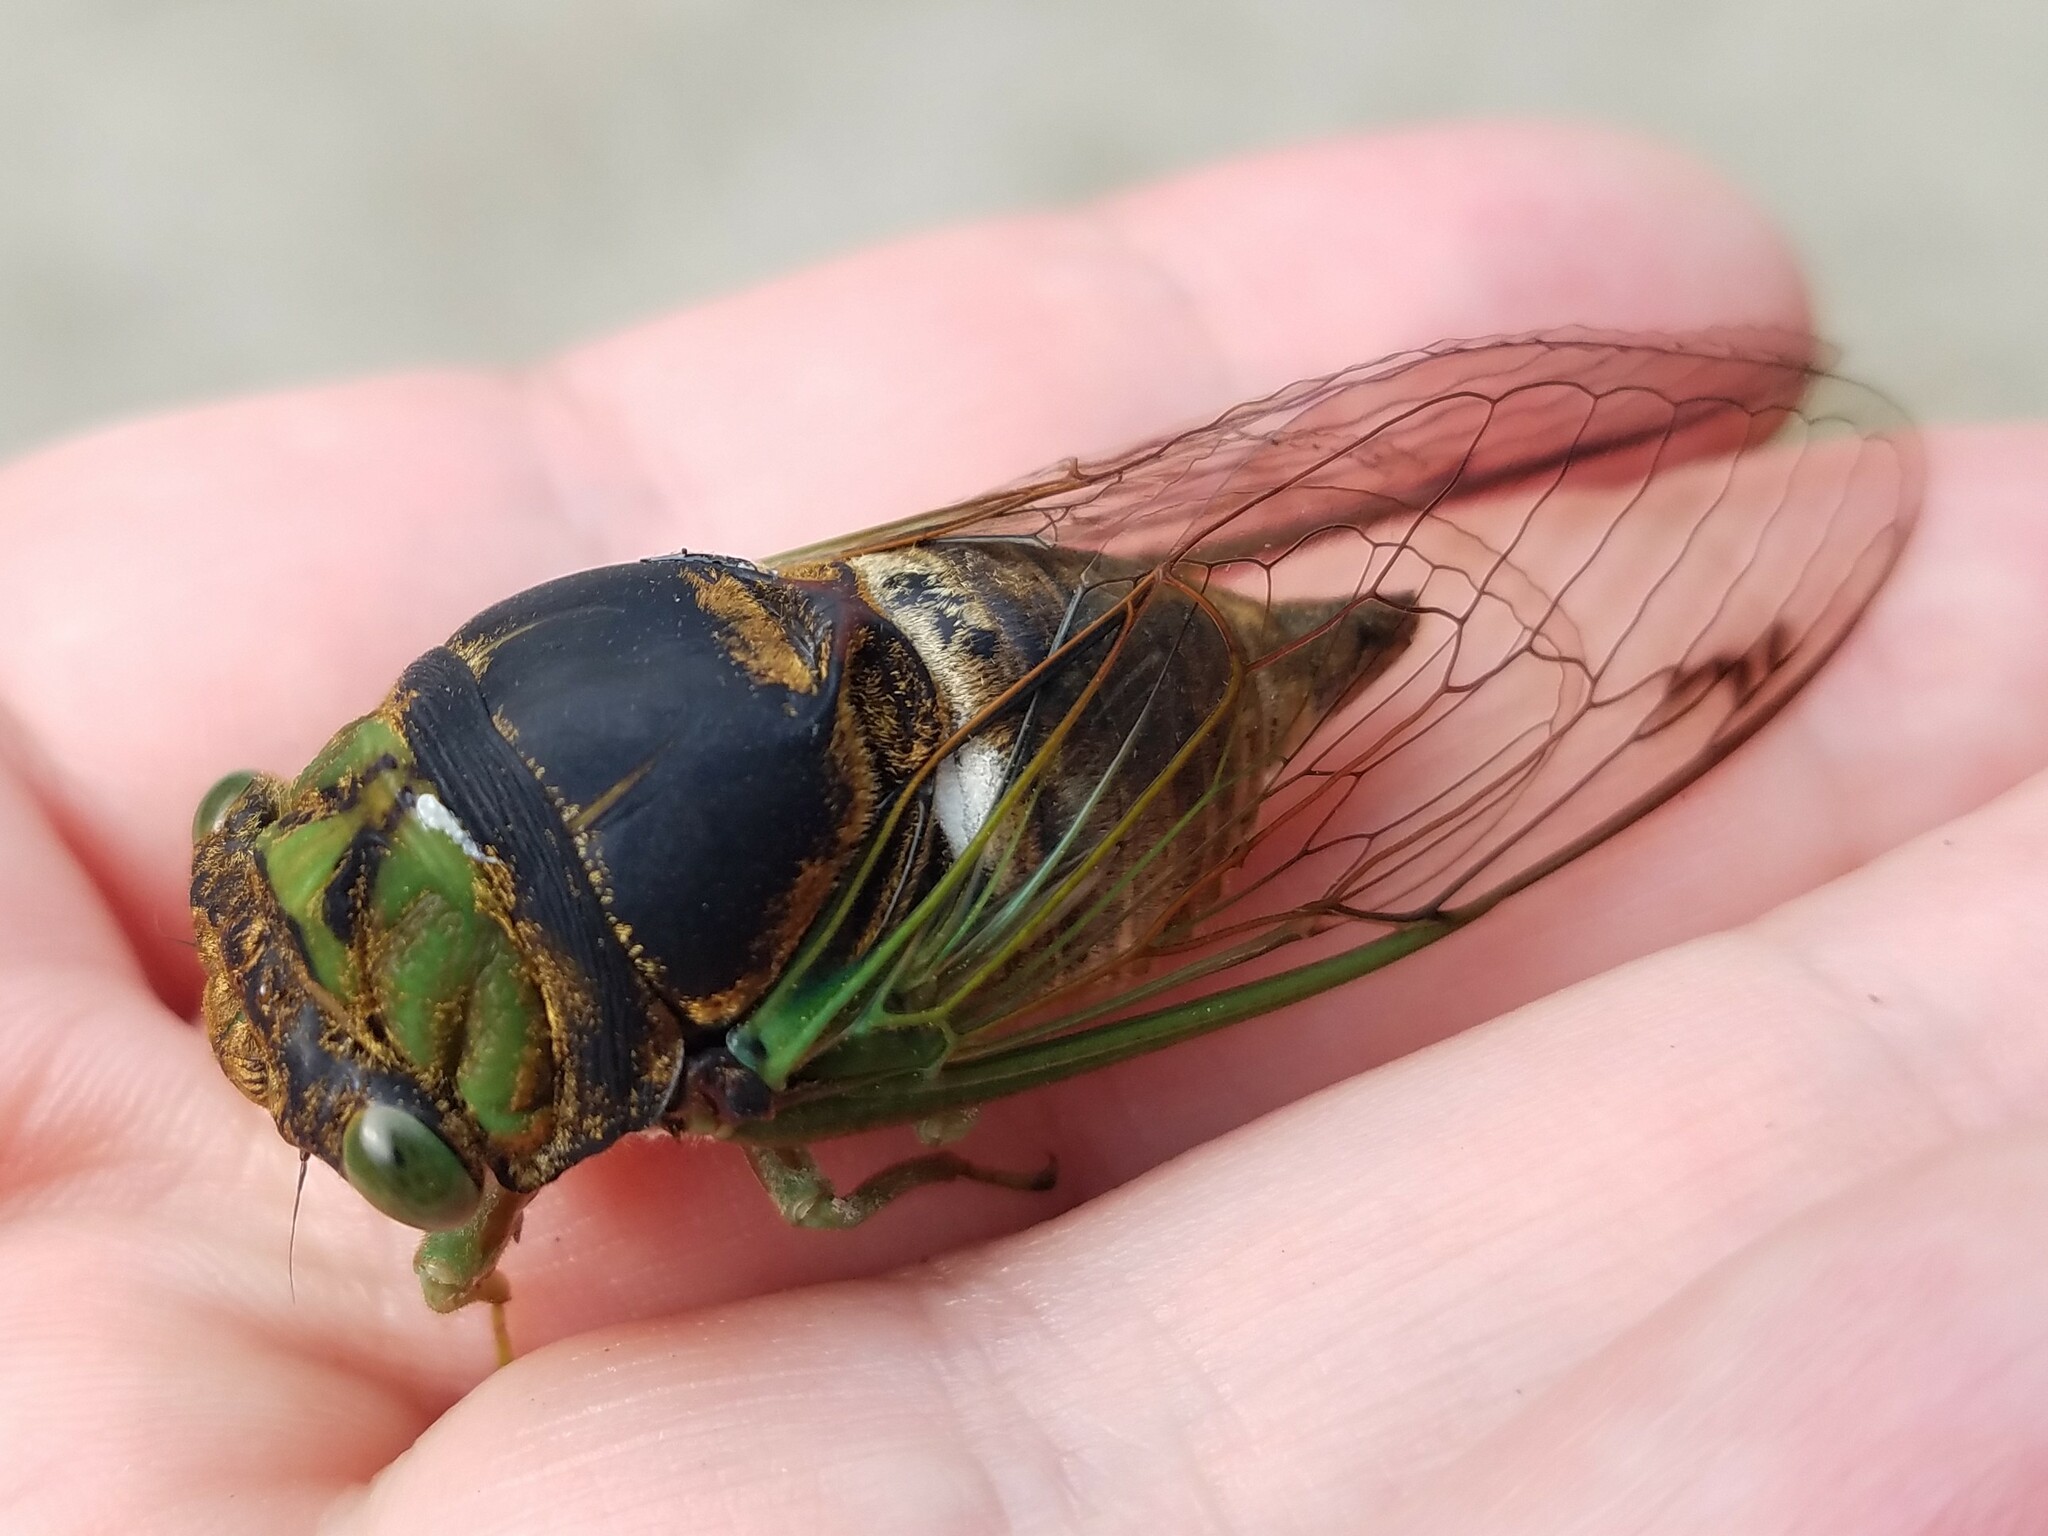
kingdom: Animalia
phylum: Arthropoda
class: Insecta
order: Hemiptera
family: Cicadidae
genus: Neotibicen
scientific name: Neotibicen tibicen
